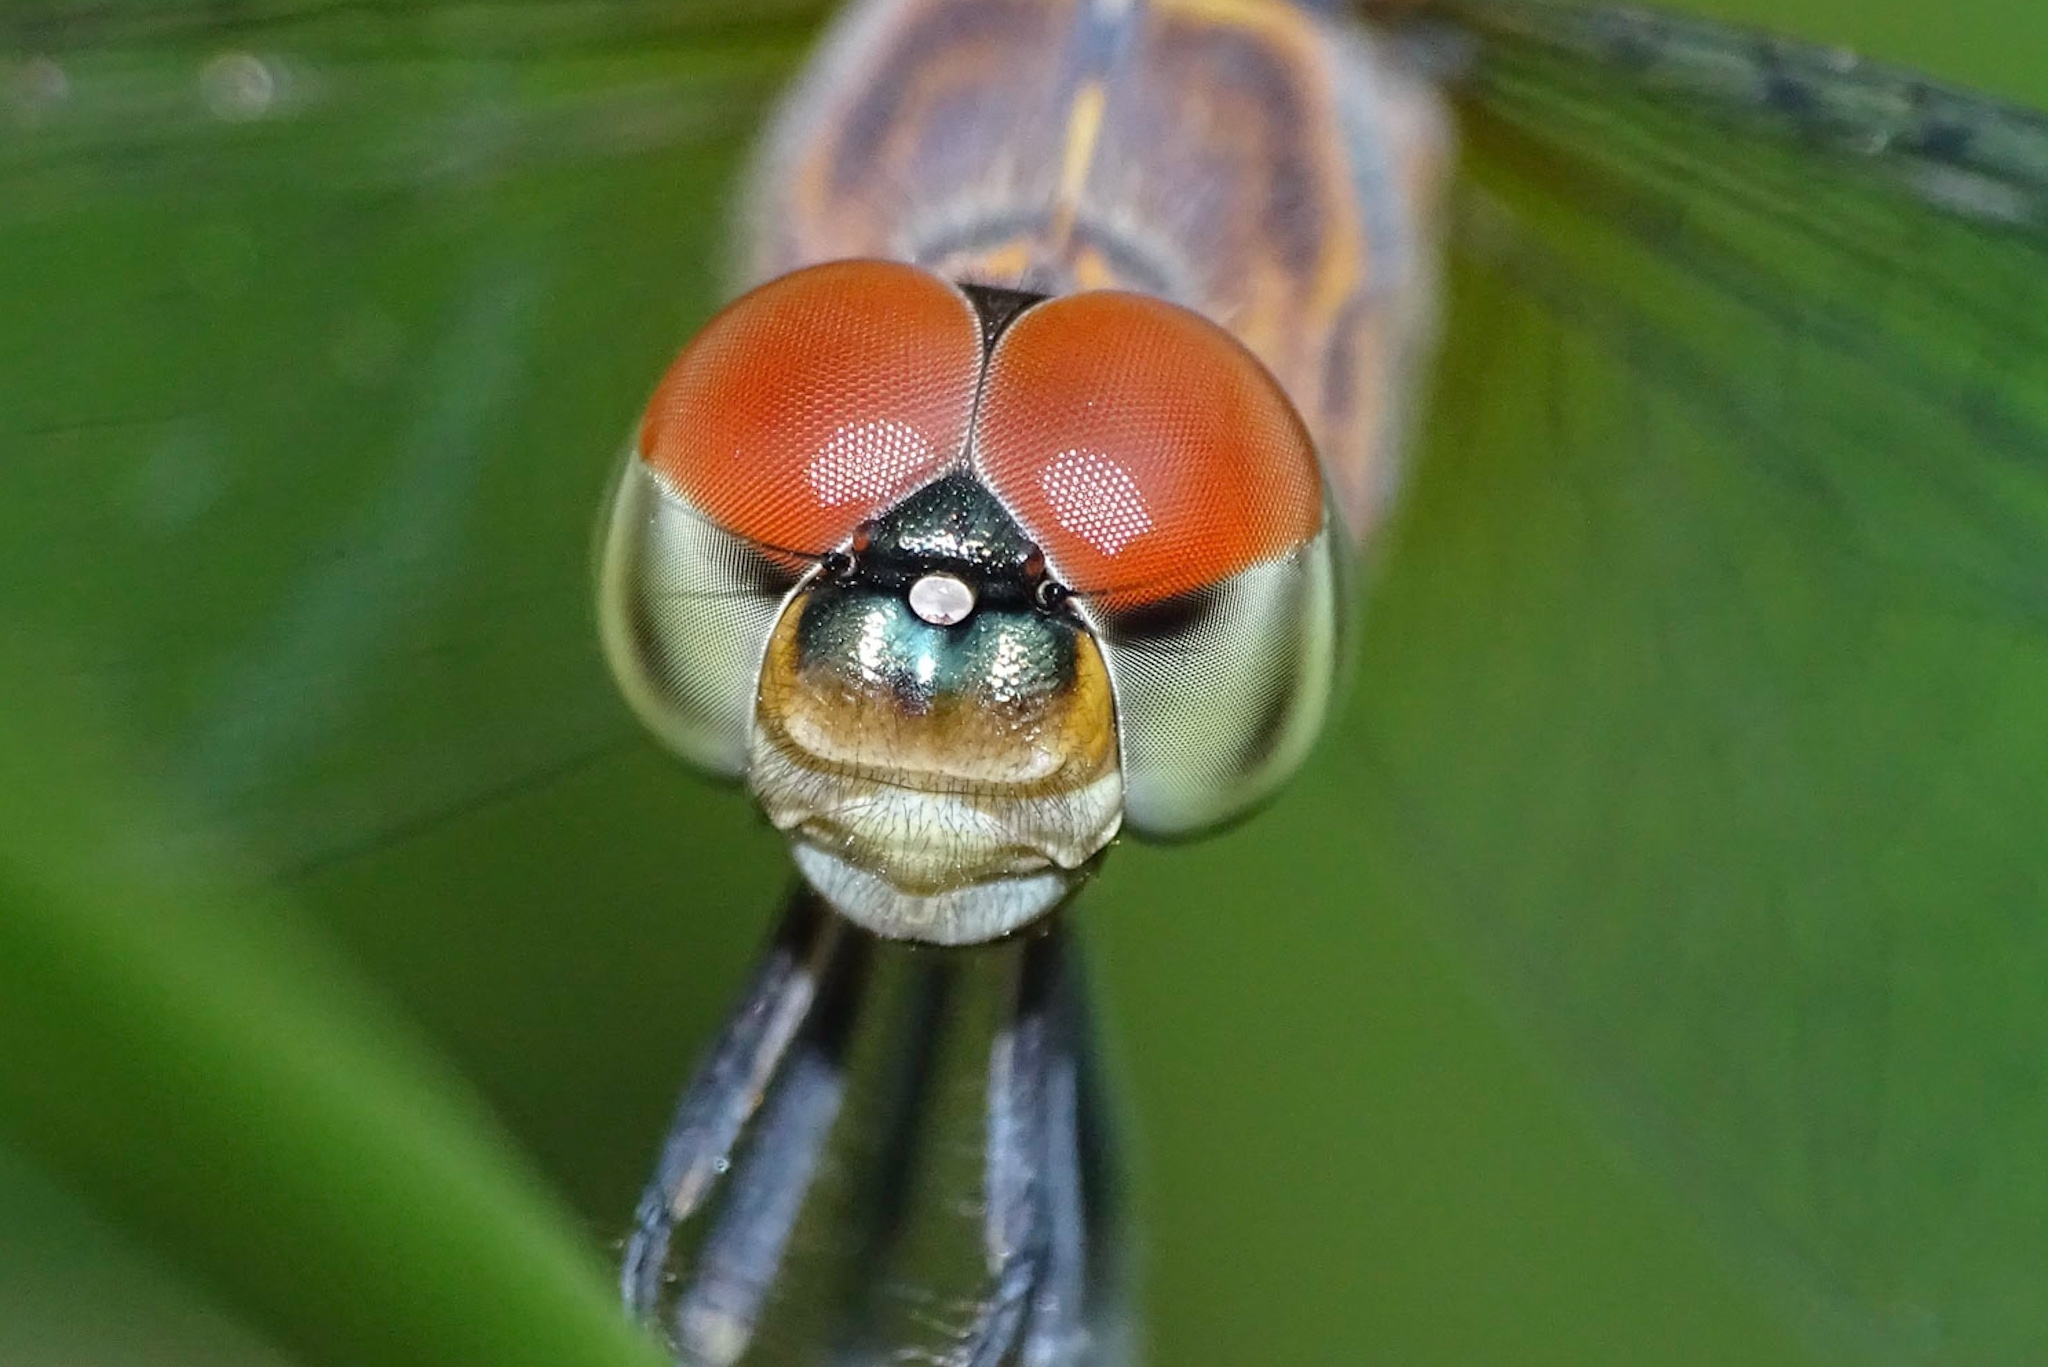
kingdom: Animalia
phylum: Arthropoda
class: Insecta
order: Odonata
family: Libellulidae
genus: Brachydiplax
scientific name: Brachydiplax chalybea
